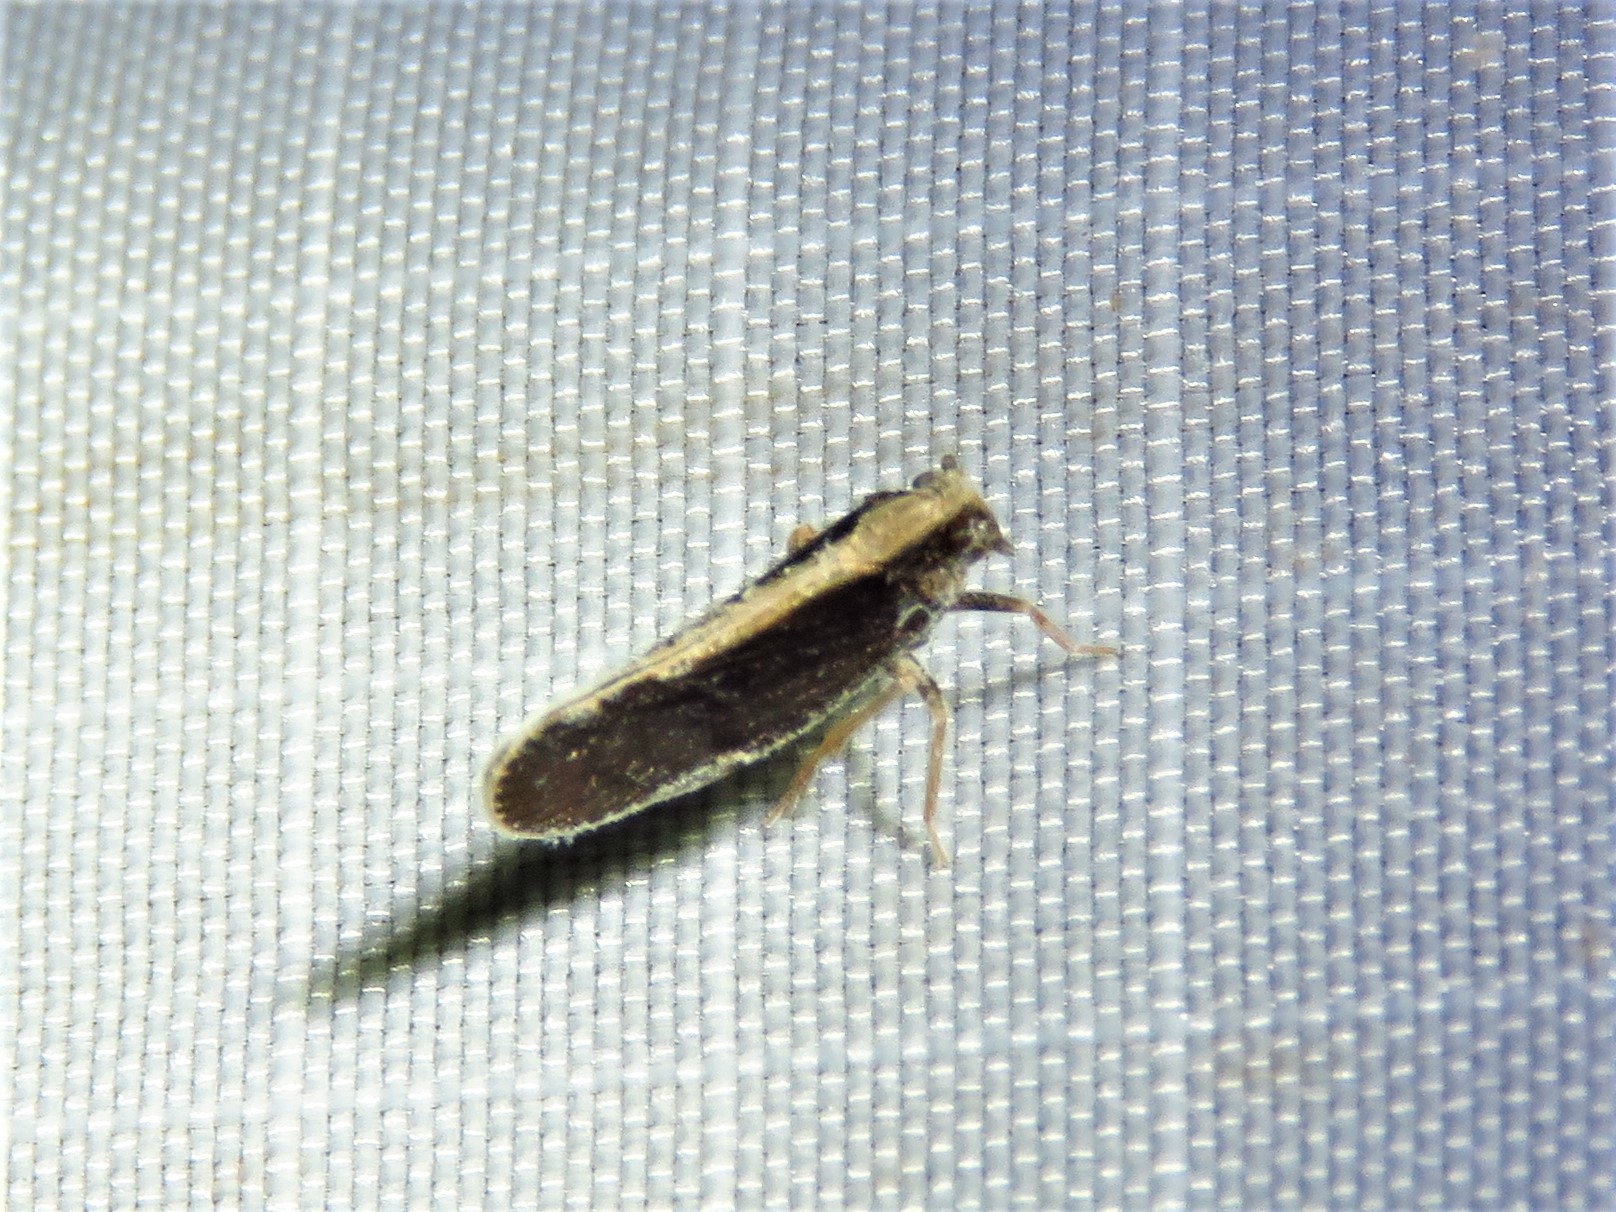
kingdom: Animalia
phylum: Arthropoda
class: Insecta
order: Hemiptera
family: Cixiidae
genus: Pintalia
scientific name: Pintalia delicata
